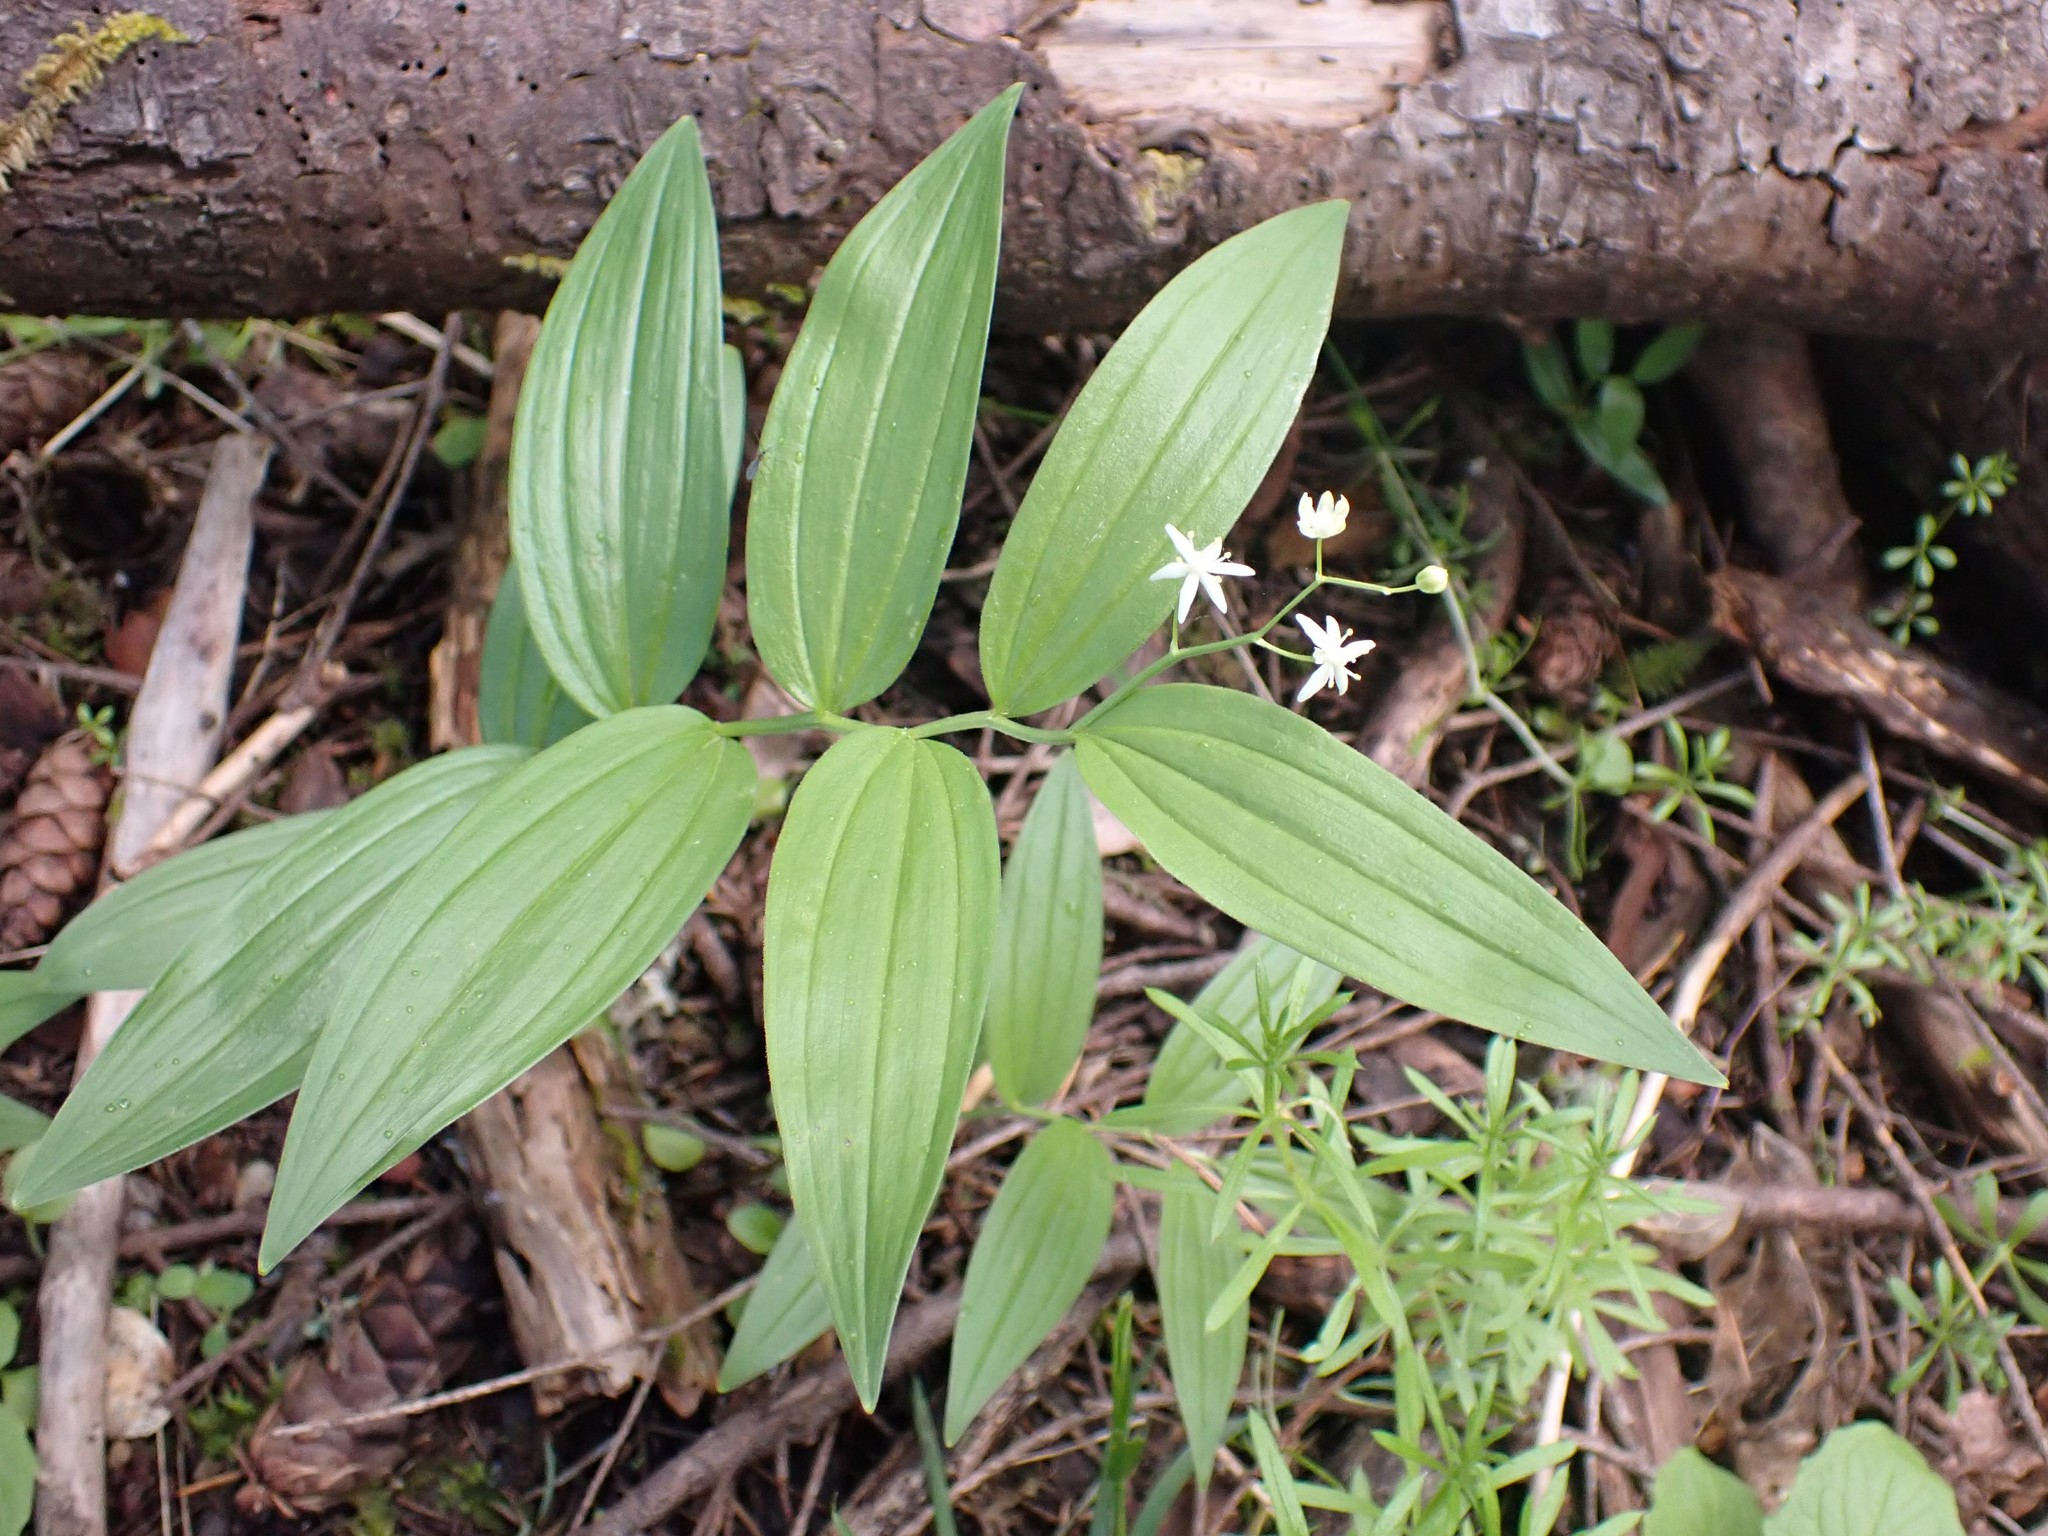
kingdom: Plantae
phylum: Tracheophyta
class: Liliopsida
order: Asparagales
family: Asparagaceae
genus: Maianthemum
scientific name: Maianthemum stellatum
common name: Little false solomon's seal
